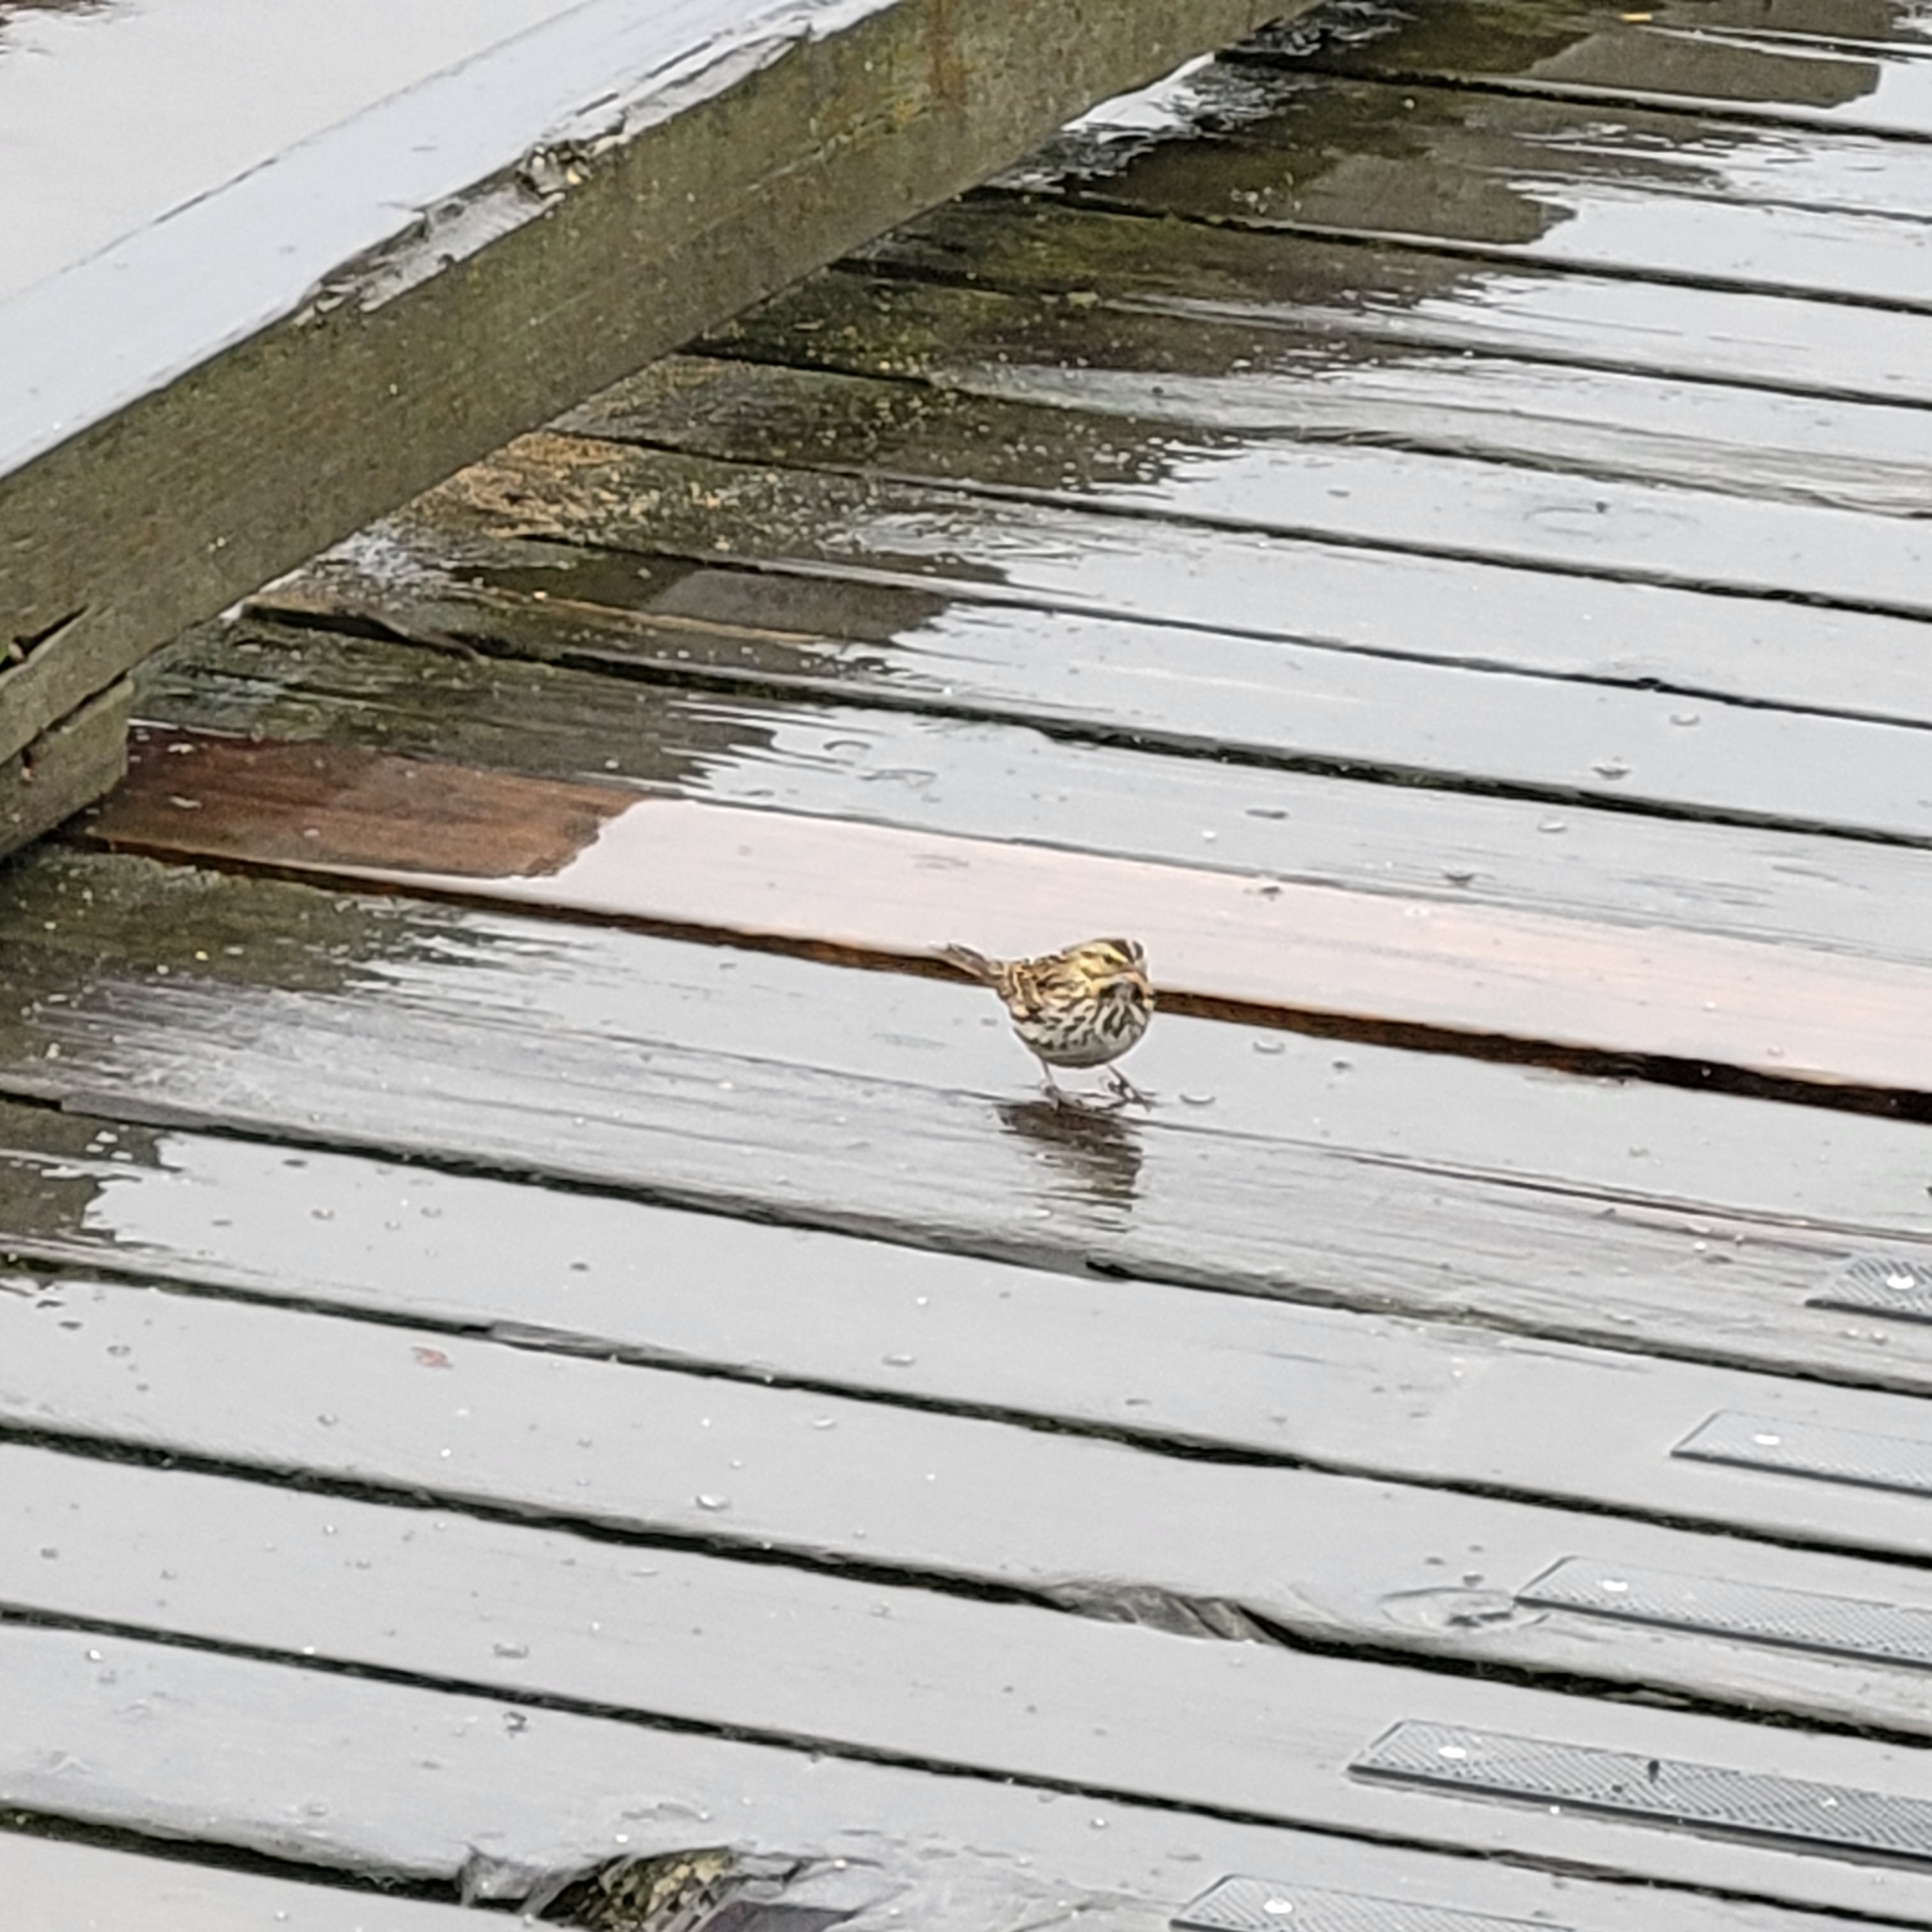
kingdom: Animalia
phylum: Chordata
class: Aves
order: Passeriformes
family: Passerellidae
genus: Passerculus
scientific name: Passerculus sandwichensis
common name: Savannah sparrow
